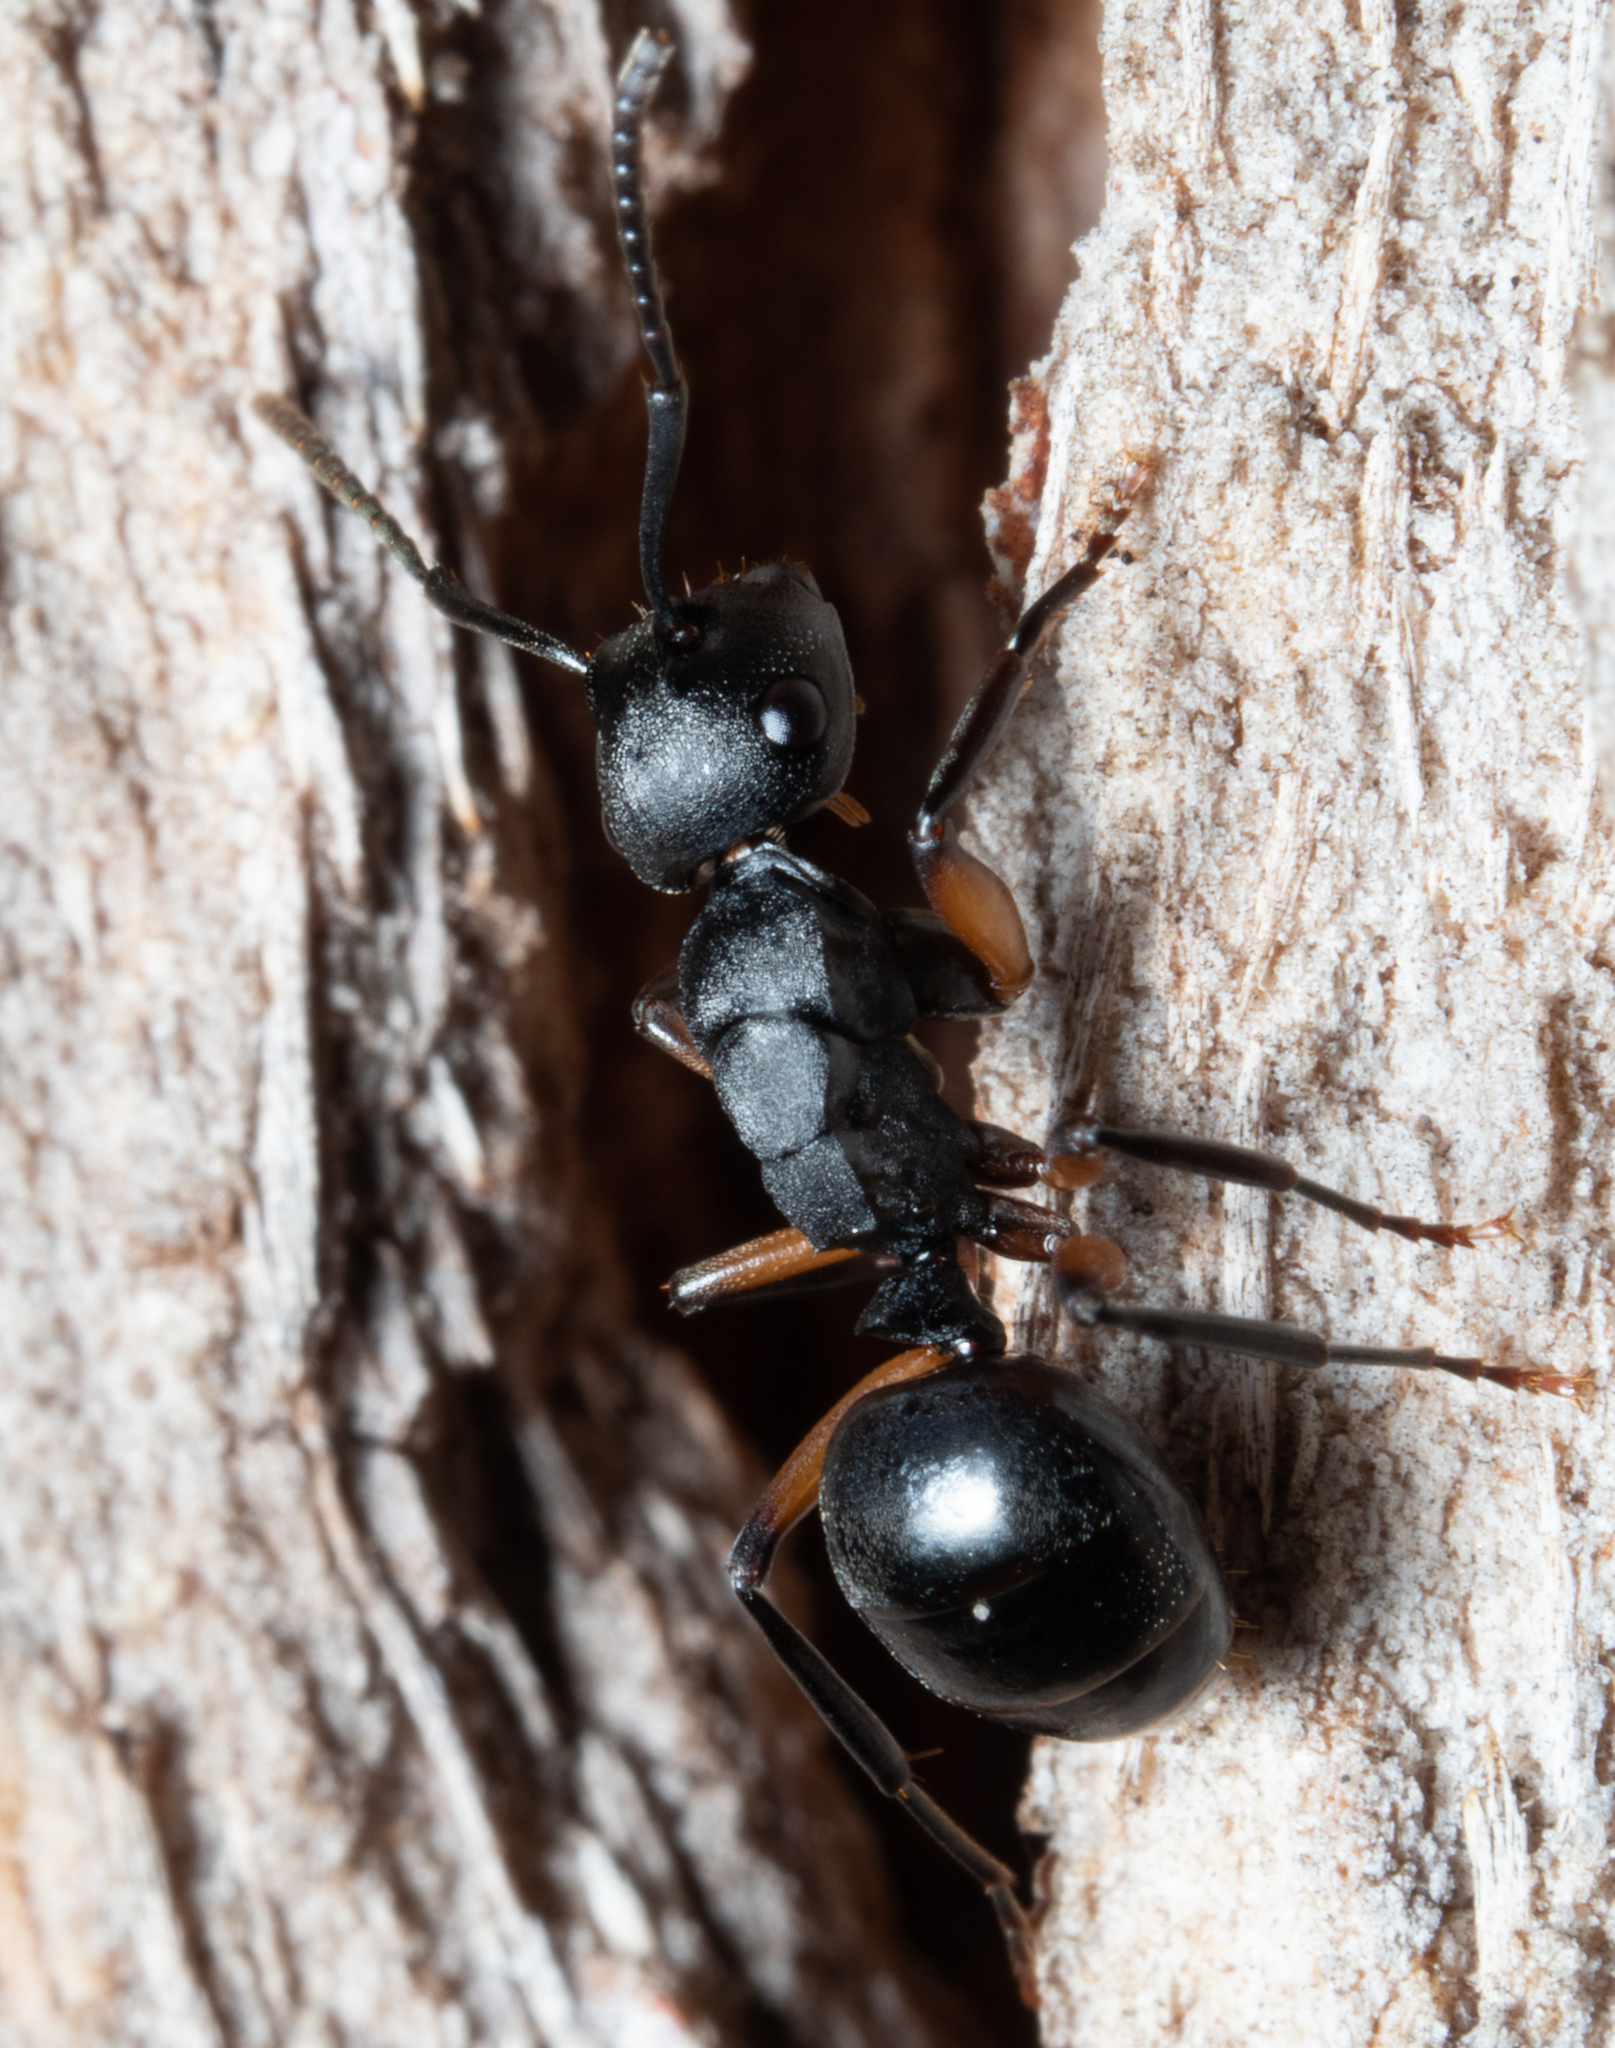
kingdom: Animalia
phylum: Arthropoda
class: Insecta
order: Hymenoptera
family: Formicidae
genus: Polyrhachis
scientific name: Polyrhachis femorata
